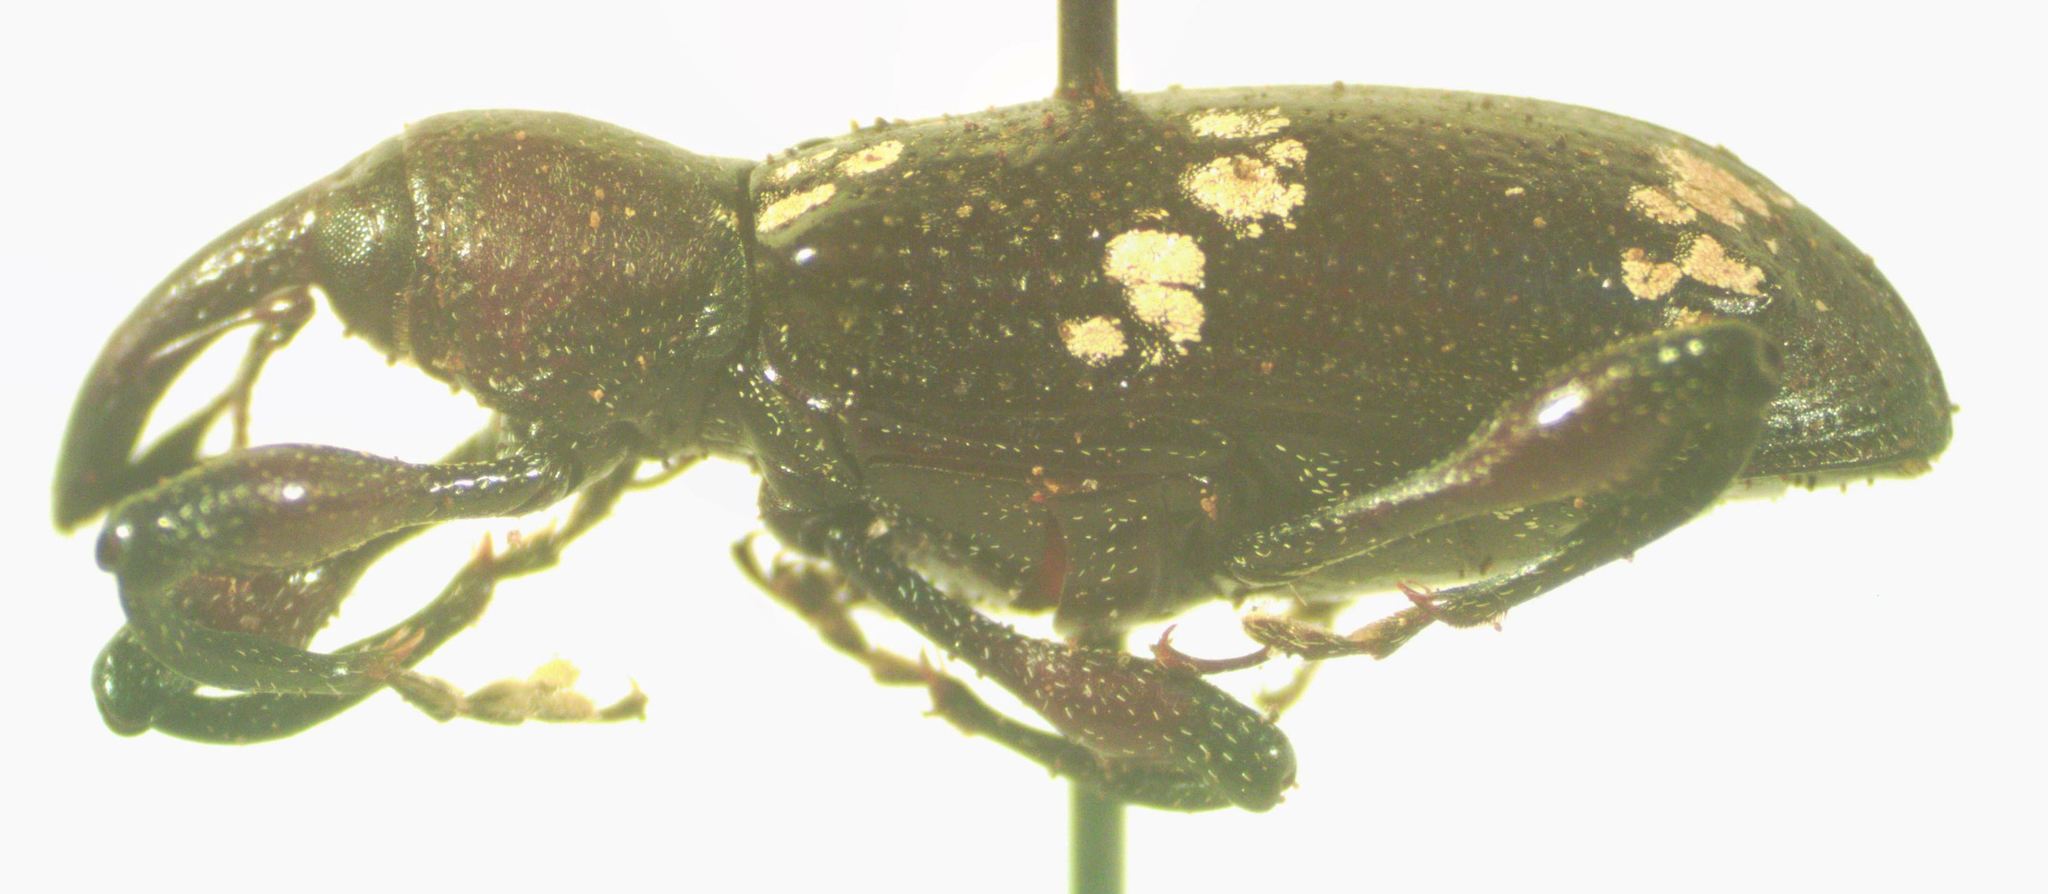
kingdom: Animalia
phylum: Arthropoda
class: Insecta
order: Coleoptera
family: Curculionidae
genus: Heilipus
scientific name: Heilipus
